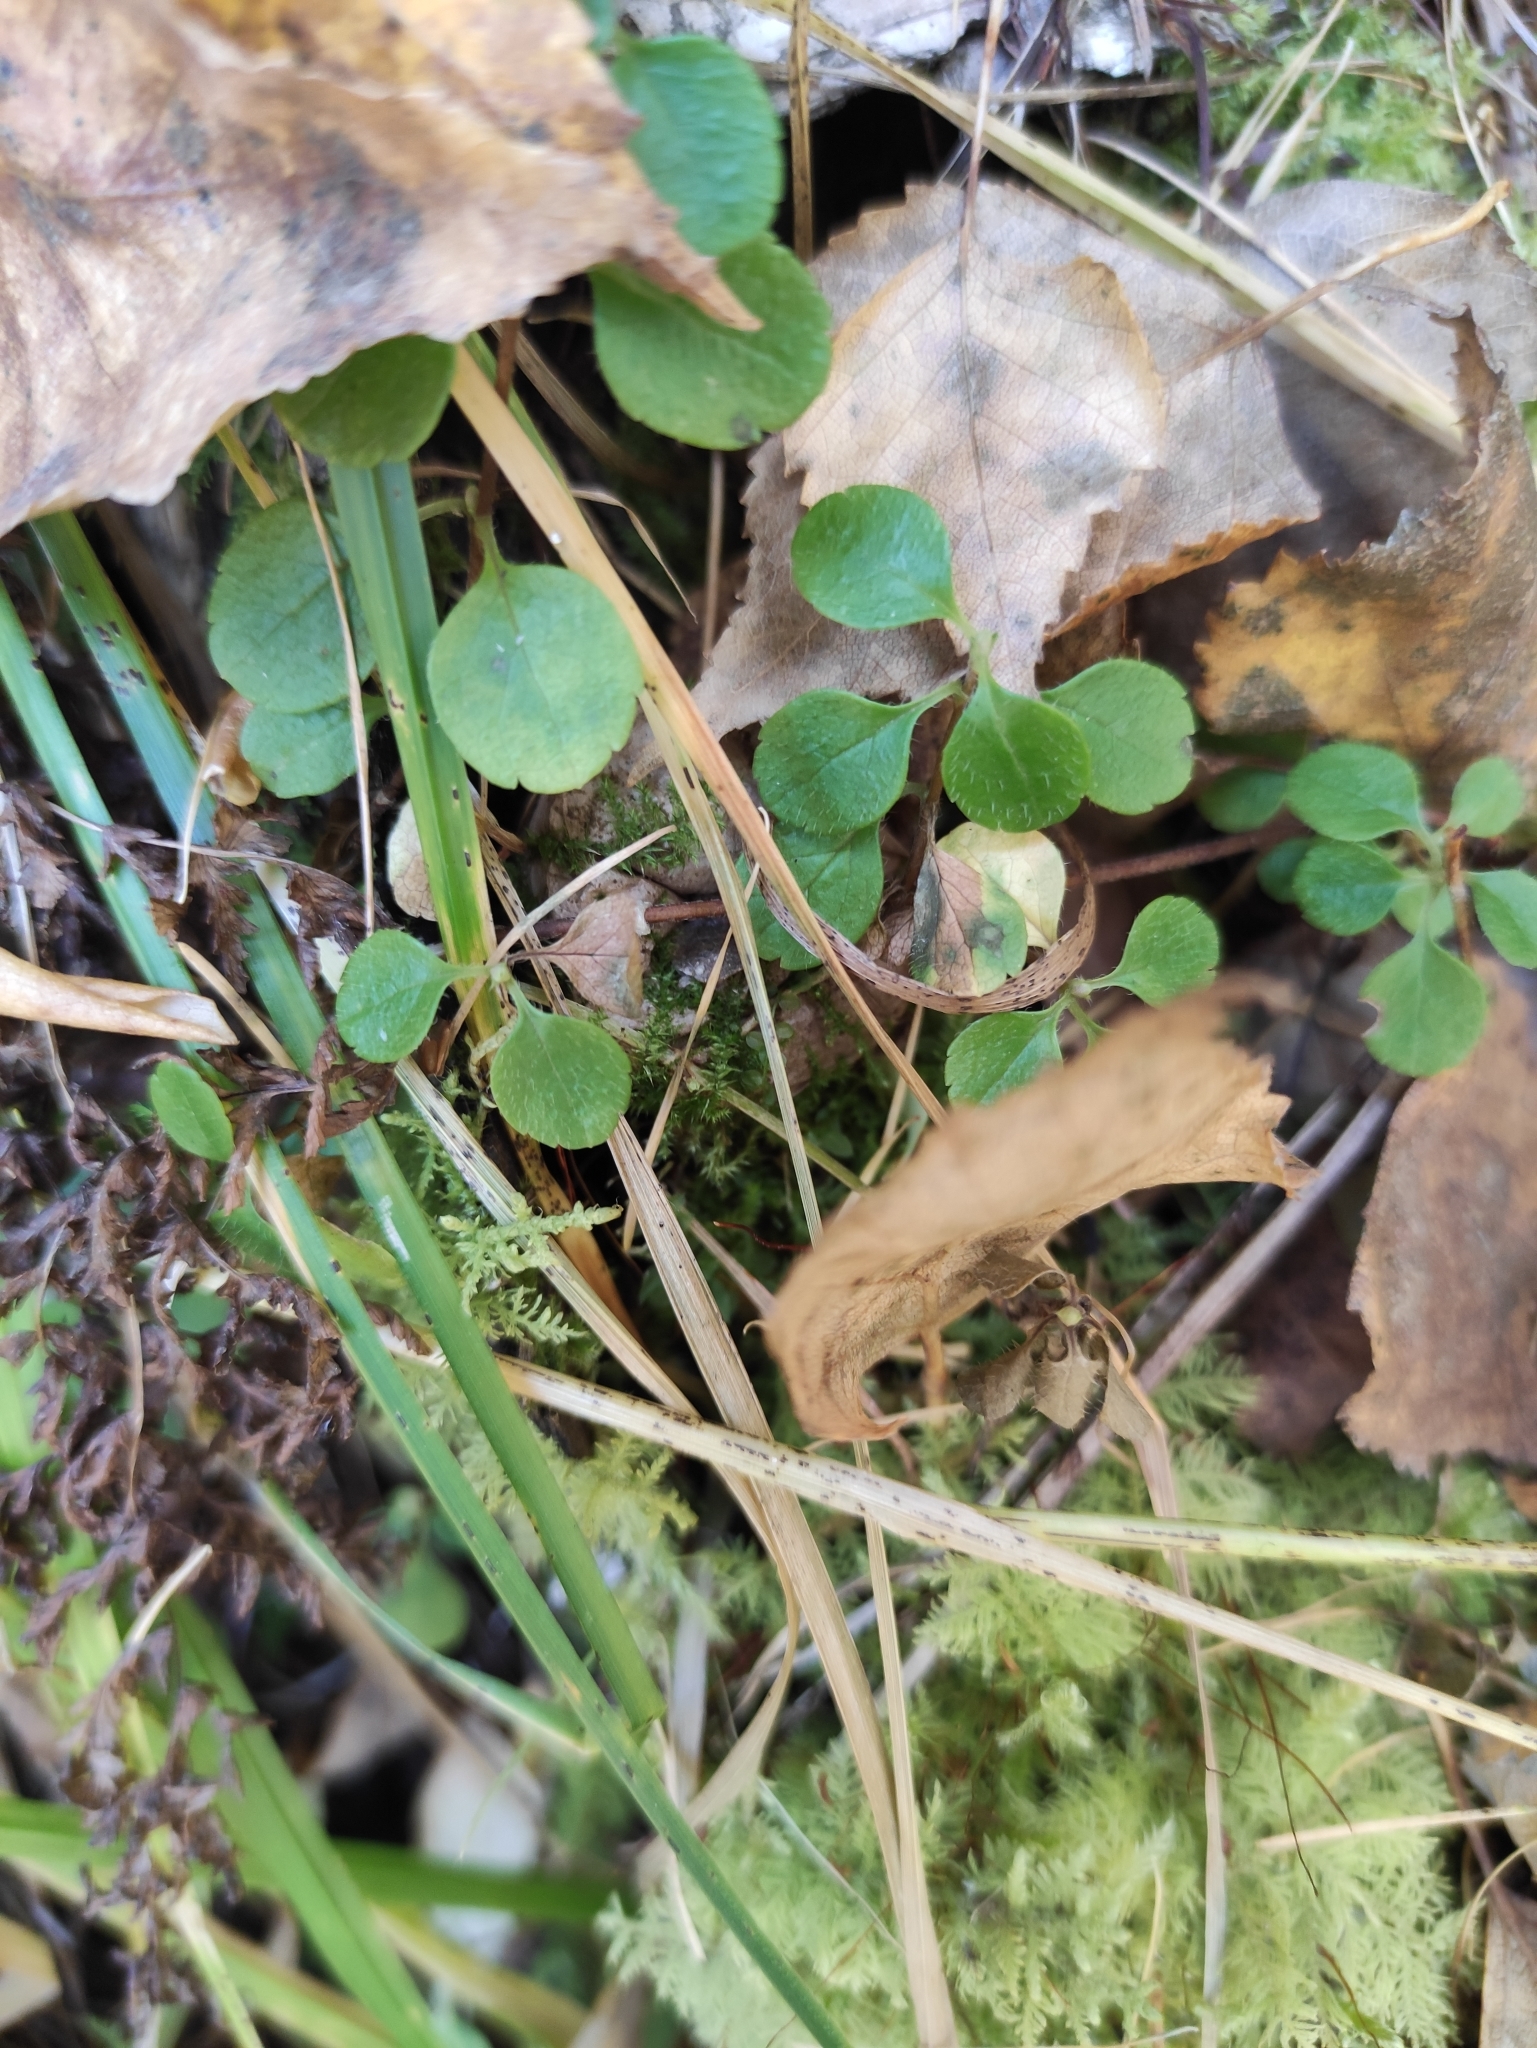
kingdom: Plantae
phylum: Tracheophyta
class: Magnoliopsida
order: Dipsacales
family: Caprifoliaceae
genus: Linnaea
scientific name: Linnaea borealis
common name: Twinflower
